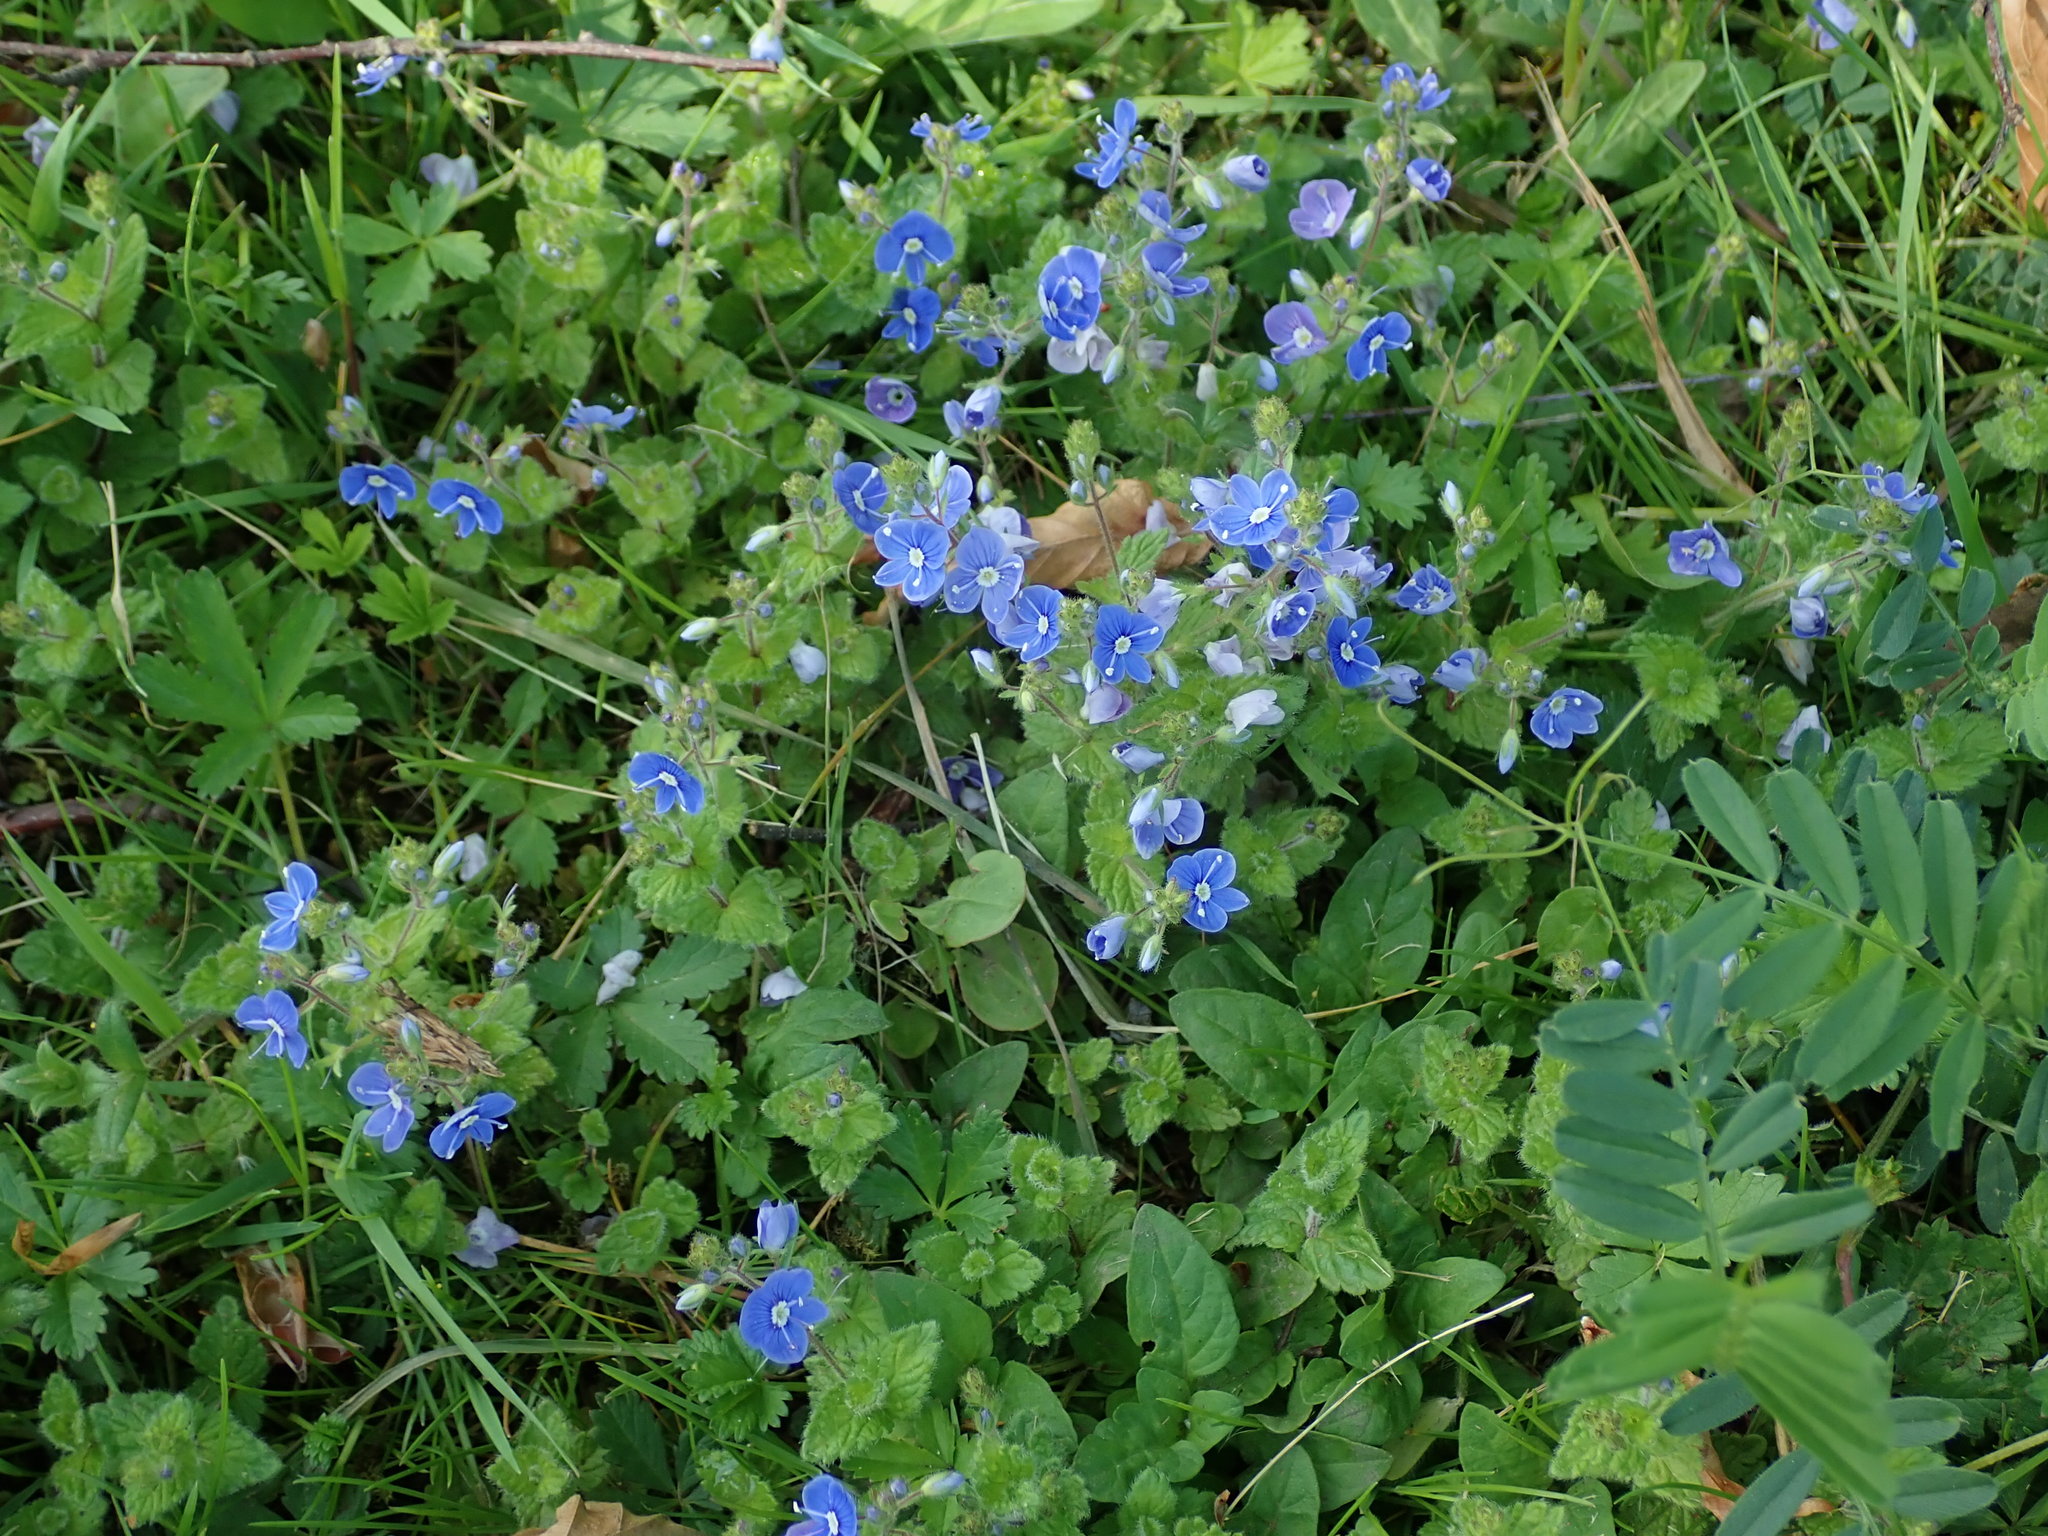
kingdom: Plantae
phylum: Tracheophyta
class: Magnoliopsida
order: Lamiales
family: Plantaginaceae
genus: Veronica
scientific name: Veronica chamaedrys
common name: Germander speedwell
